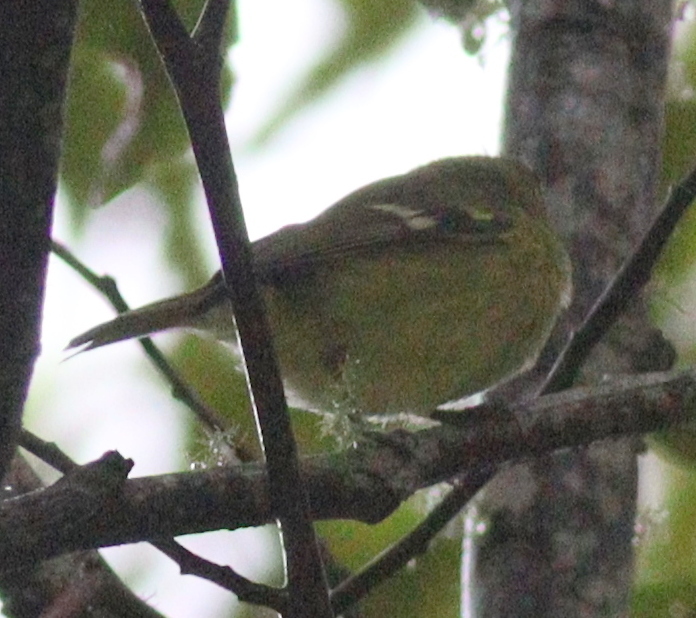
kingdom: Animalia
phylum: Chordata
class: Aves
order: Passeriformes
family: Vireonidae
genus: Vireo
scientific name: Vireo carmioli
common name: Yellow-winged vireo
